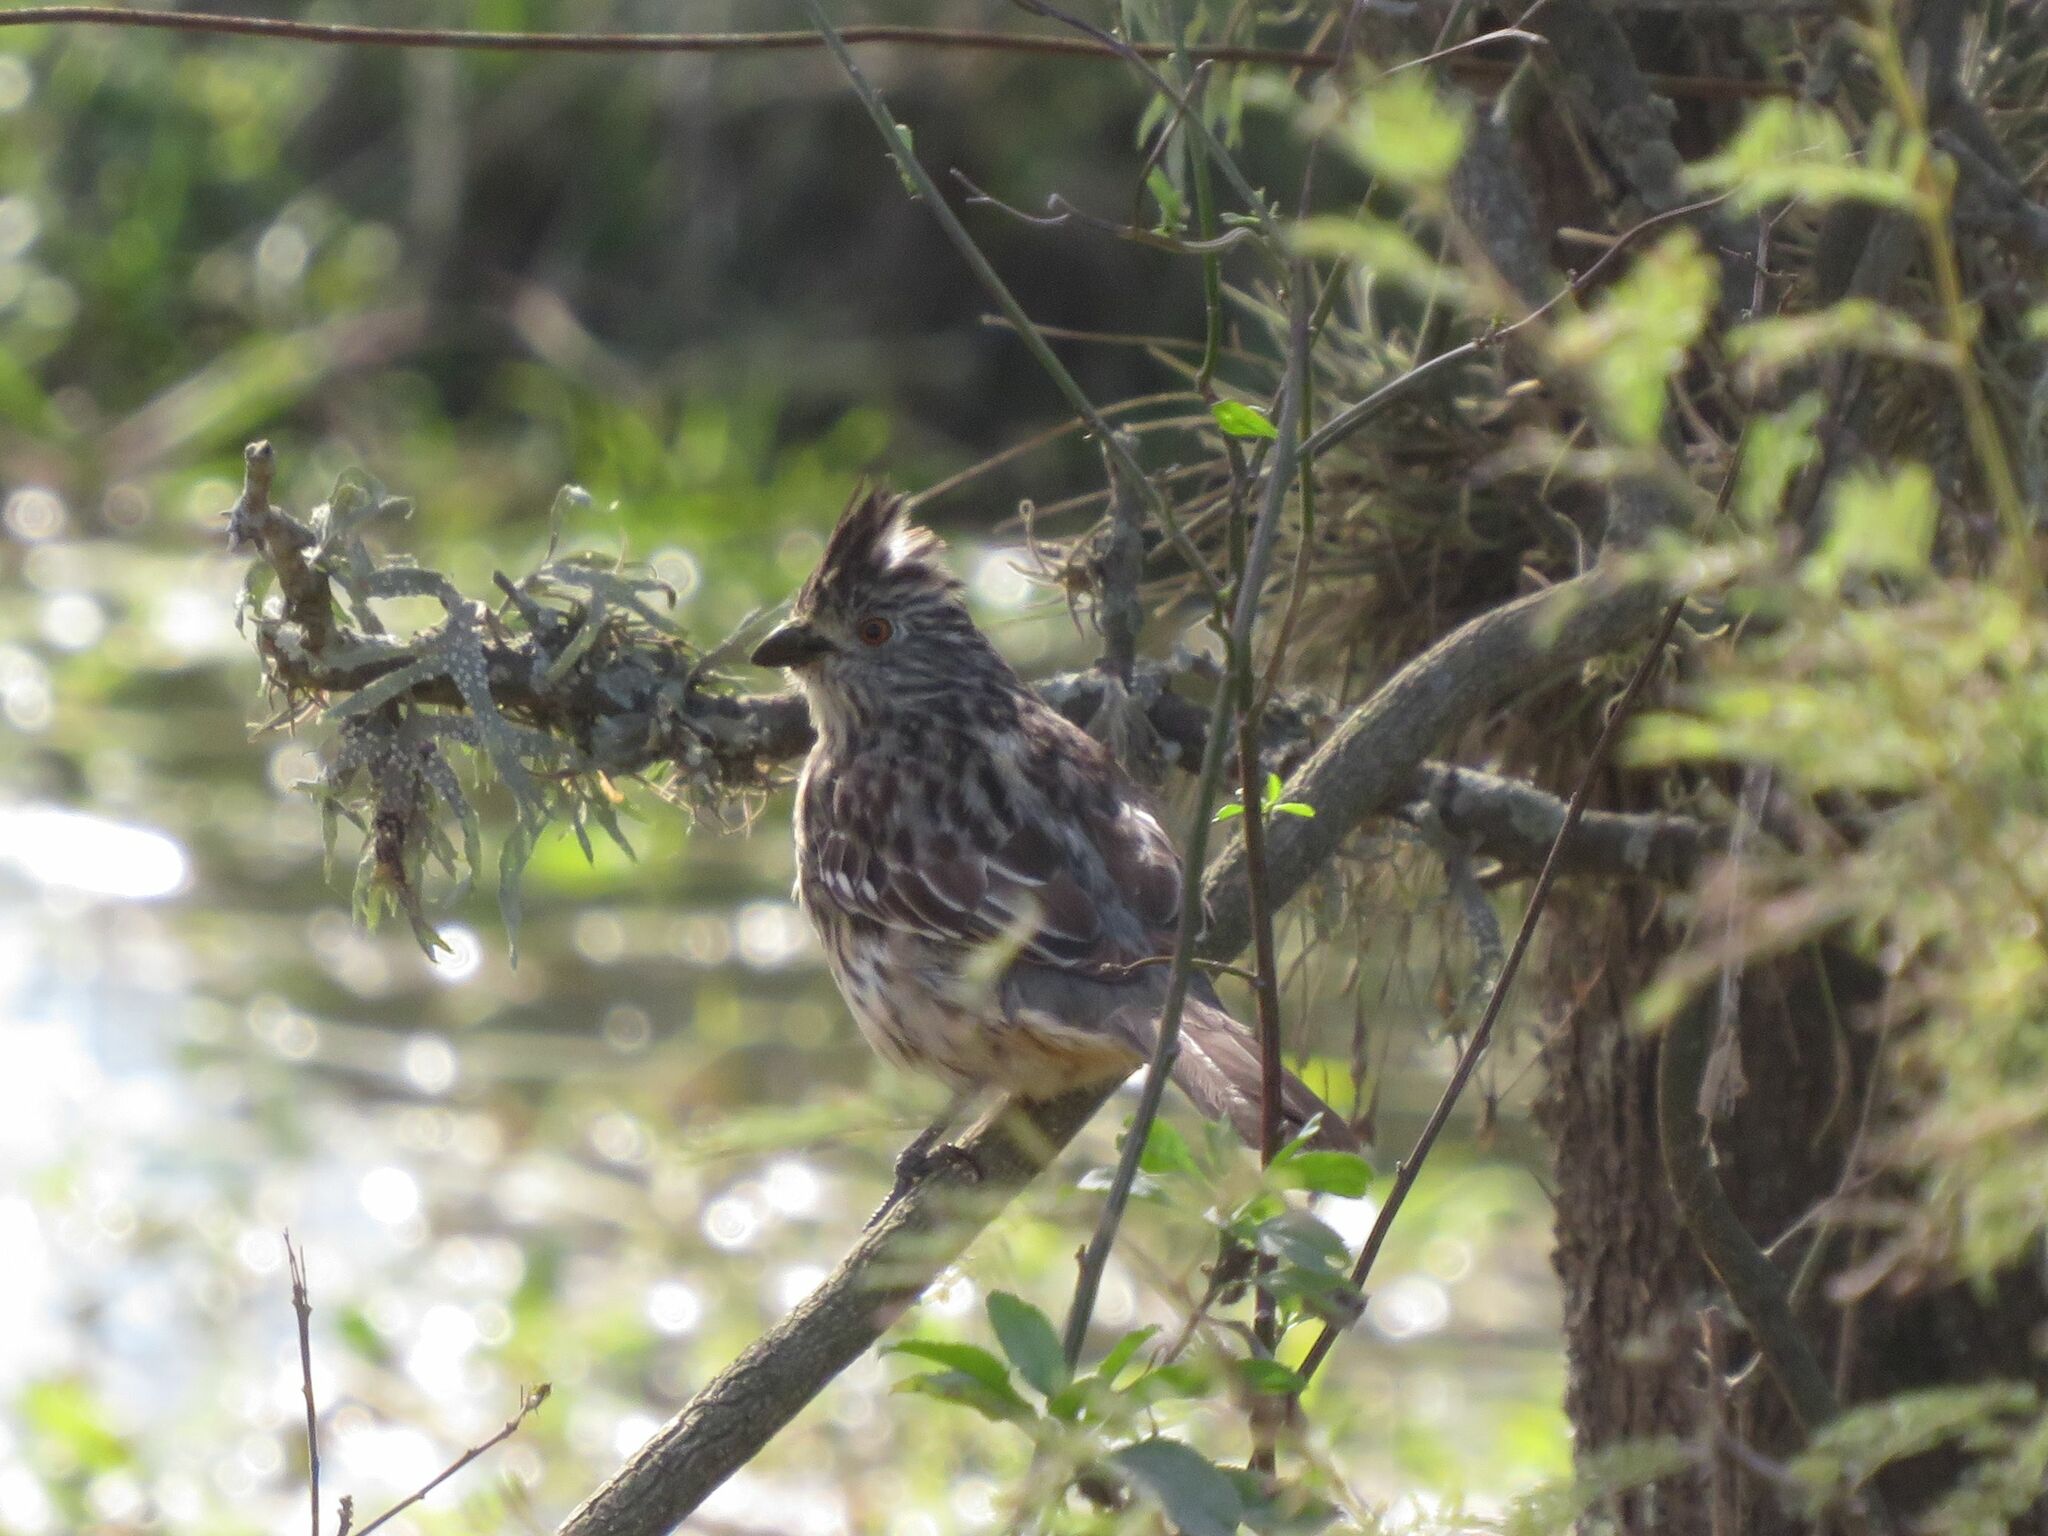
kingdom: Animalia
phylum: Chordata
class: Aves
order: Passeriformes
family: Cotingidae
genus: Phytotoma
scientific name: Phytotoma rutila
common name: White-tipped plantcutter
